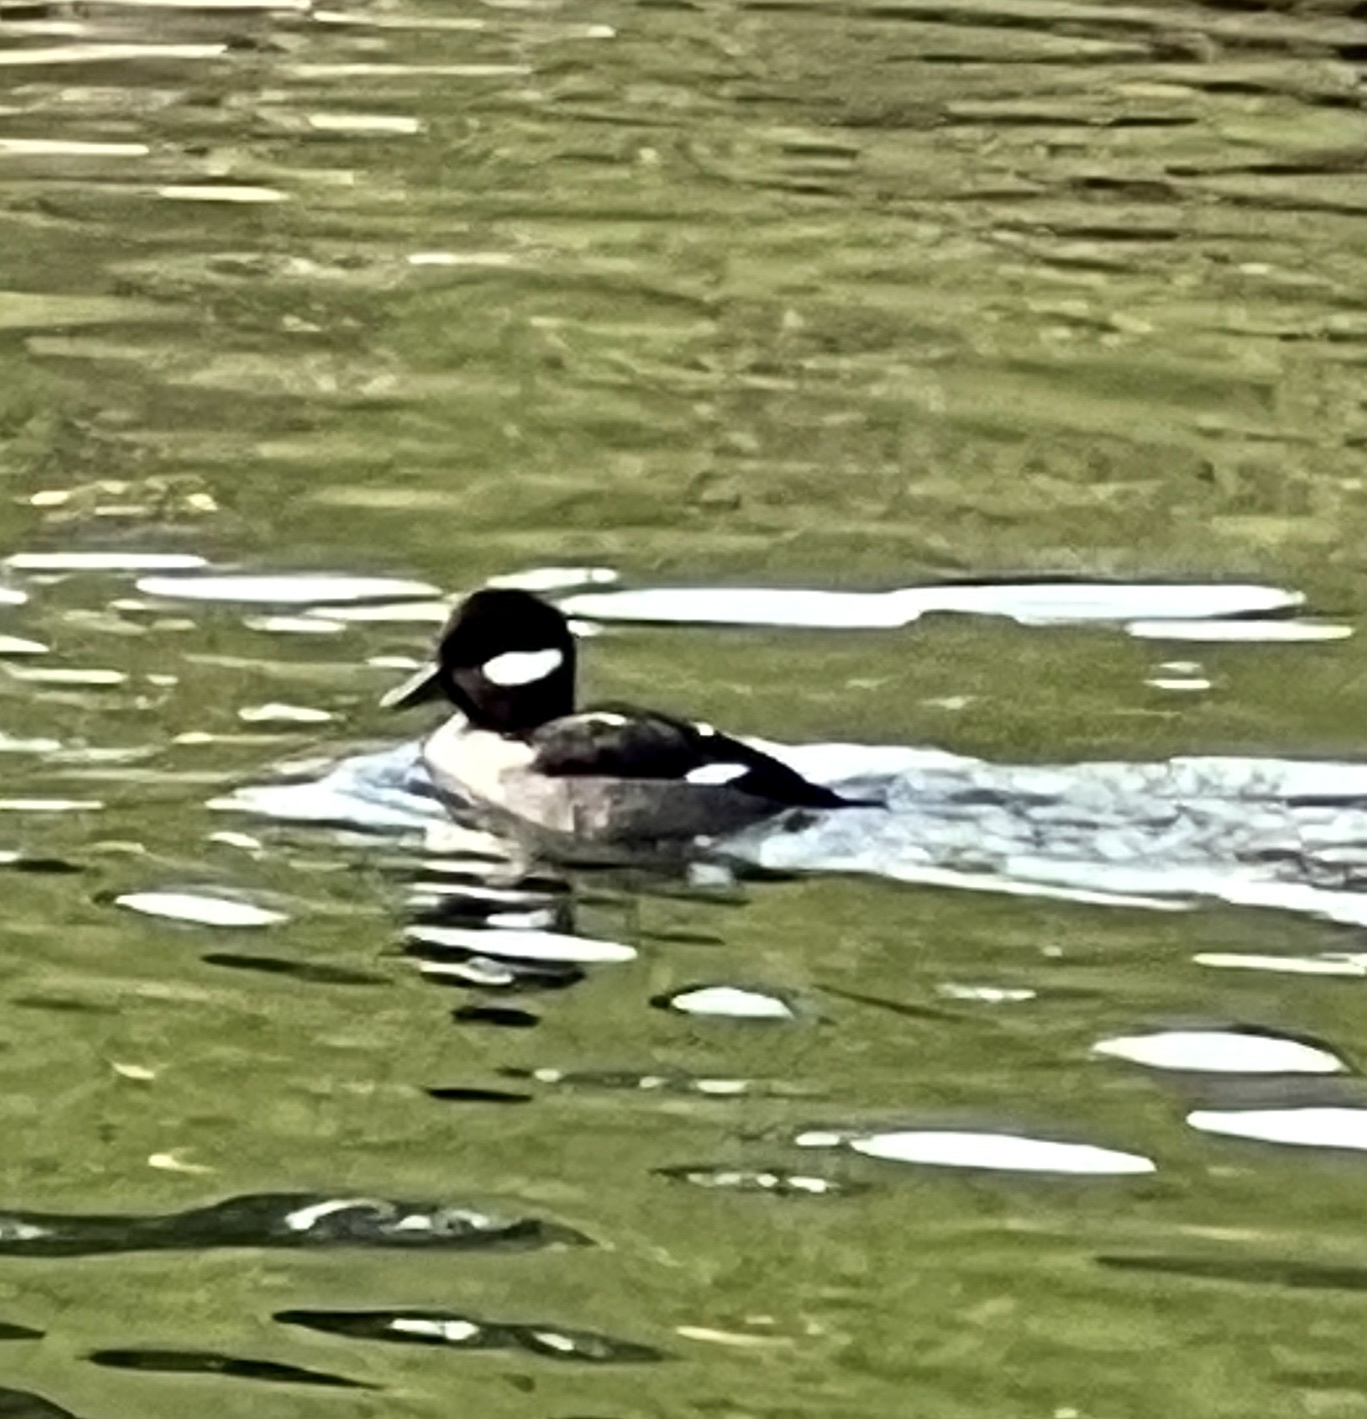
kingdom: Animalia
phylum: Chordata
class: Aves
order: Anseriformes
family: Anatidae
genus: Bucephala
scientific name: Bucephala albeola
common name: Bufflehead
